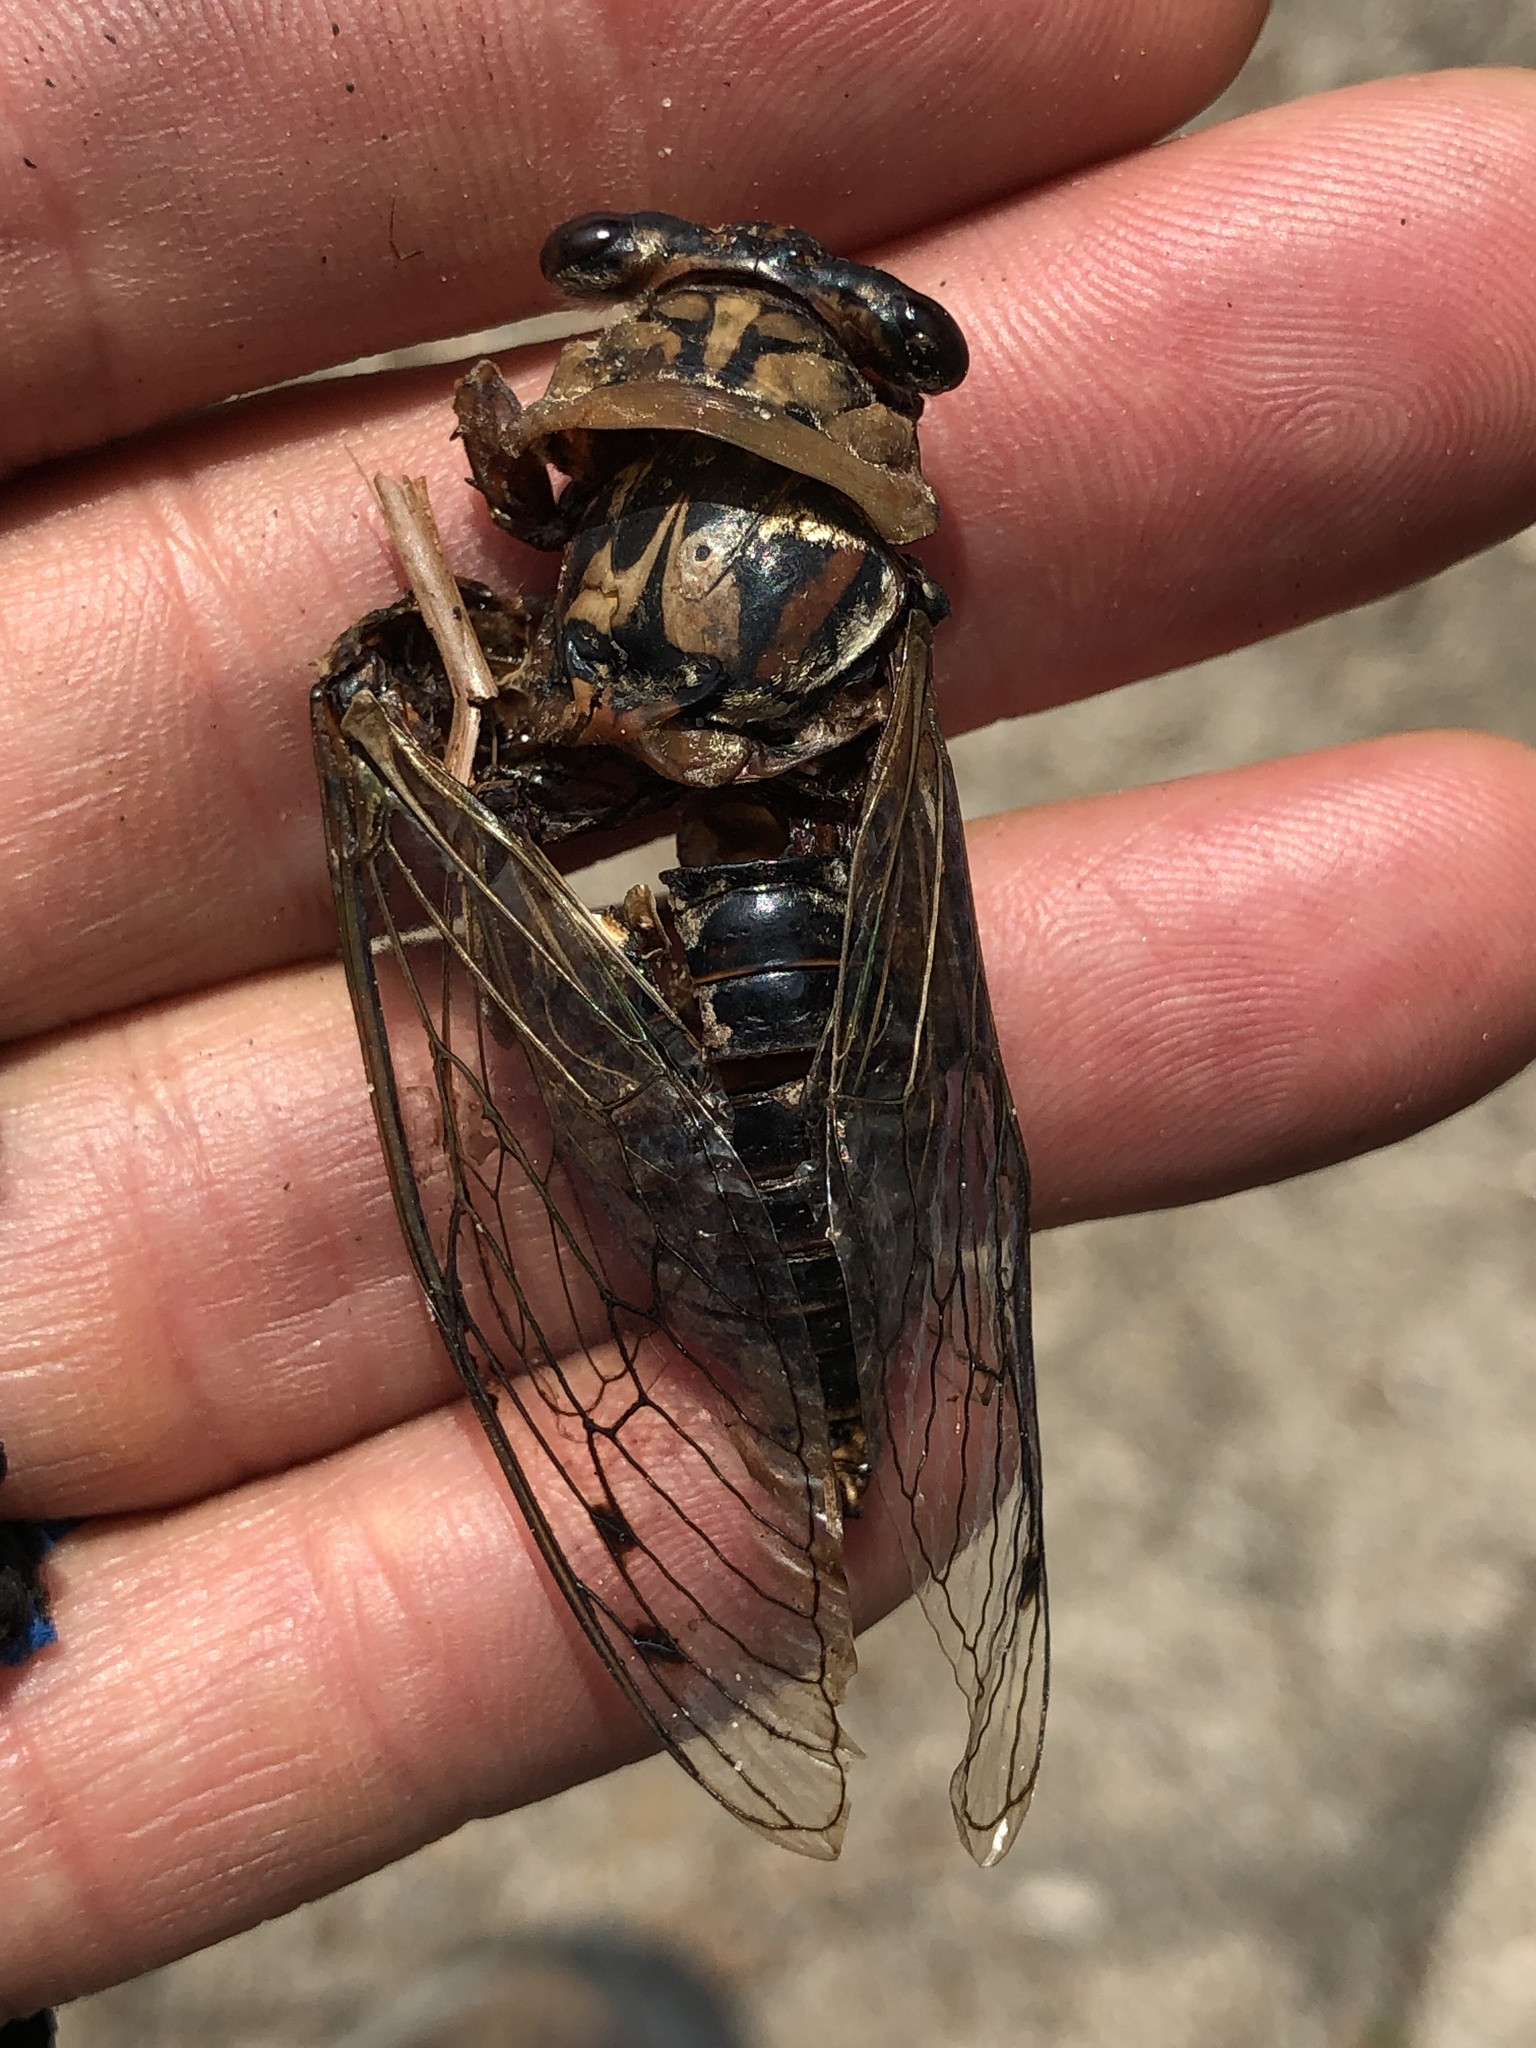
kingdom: Animalia
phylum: Arthropoda
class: Insecta
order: Hemiptera
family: Cicadidae
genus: Megatibicen
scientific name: Megatibicen resh
